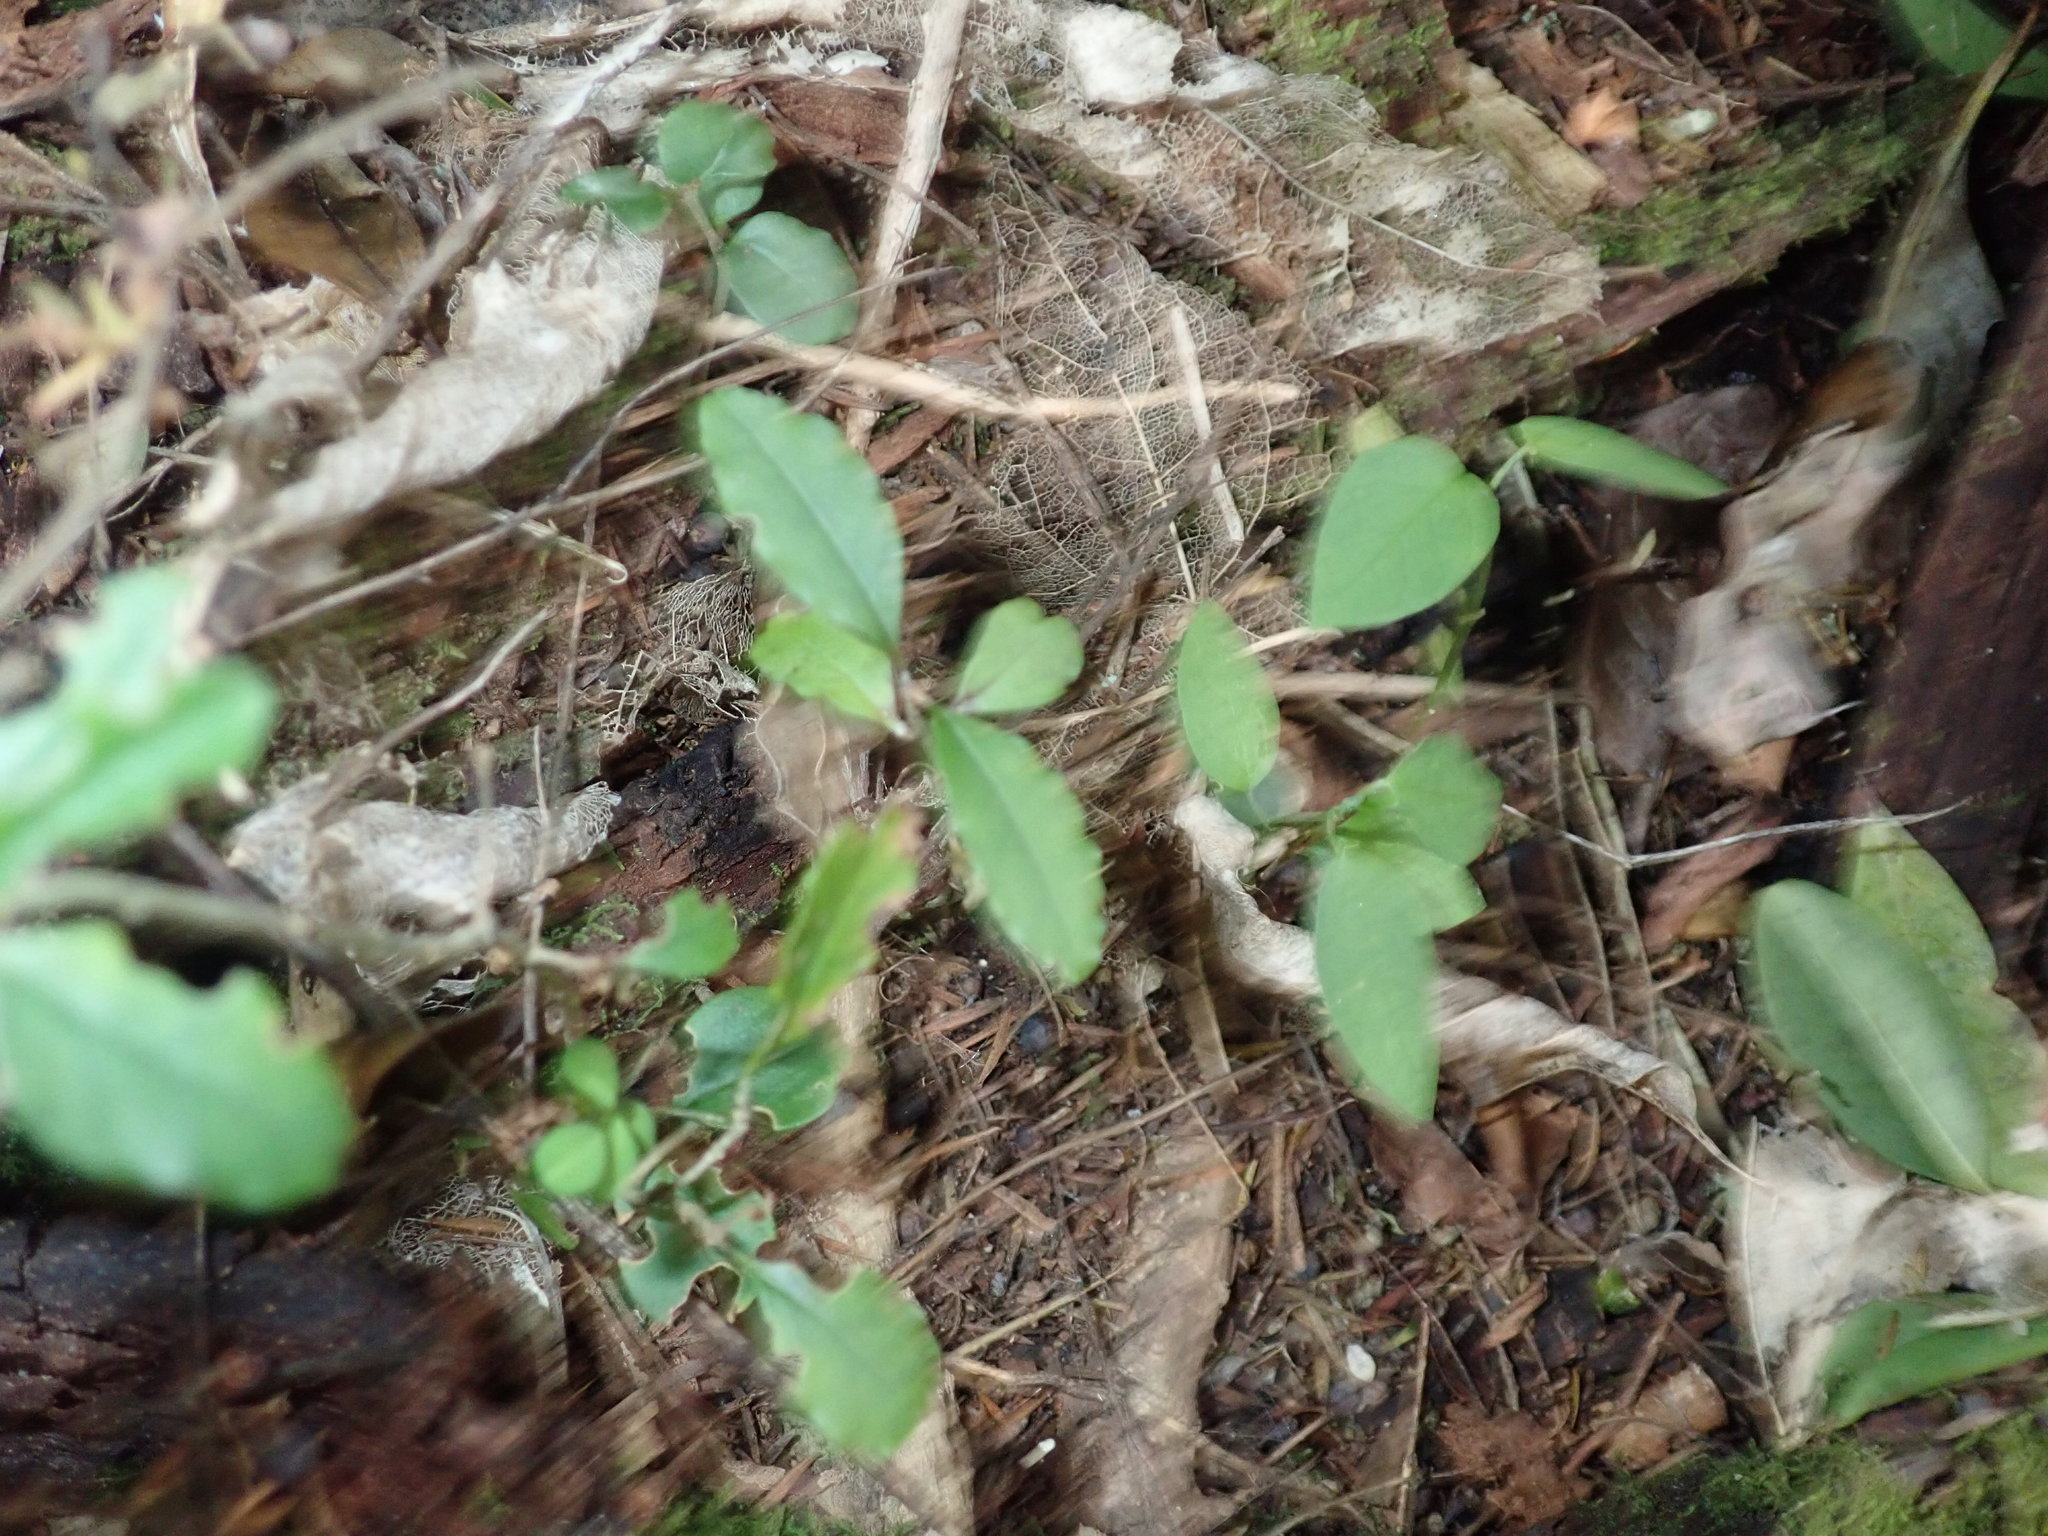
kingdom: Plantae
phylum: Tracheophyta
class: Magnoliopsida
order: Lamiales
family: Oleaceae
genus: Ligustrum
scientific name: Ligustrum sinense
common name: Chinese privet
